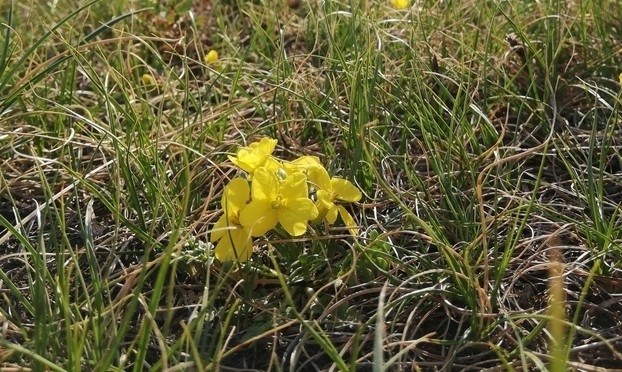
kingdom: Plantae
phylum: Tracheophyta
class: Magnoliopsida
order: Brassicales
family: Brassicaceae
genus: Chorispora
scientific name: Chorispora sibirica
